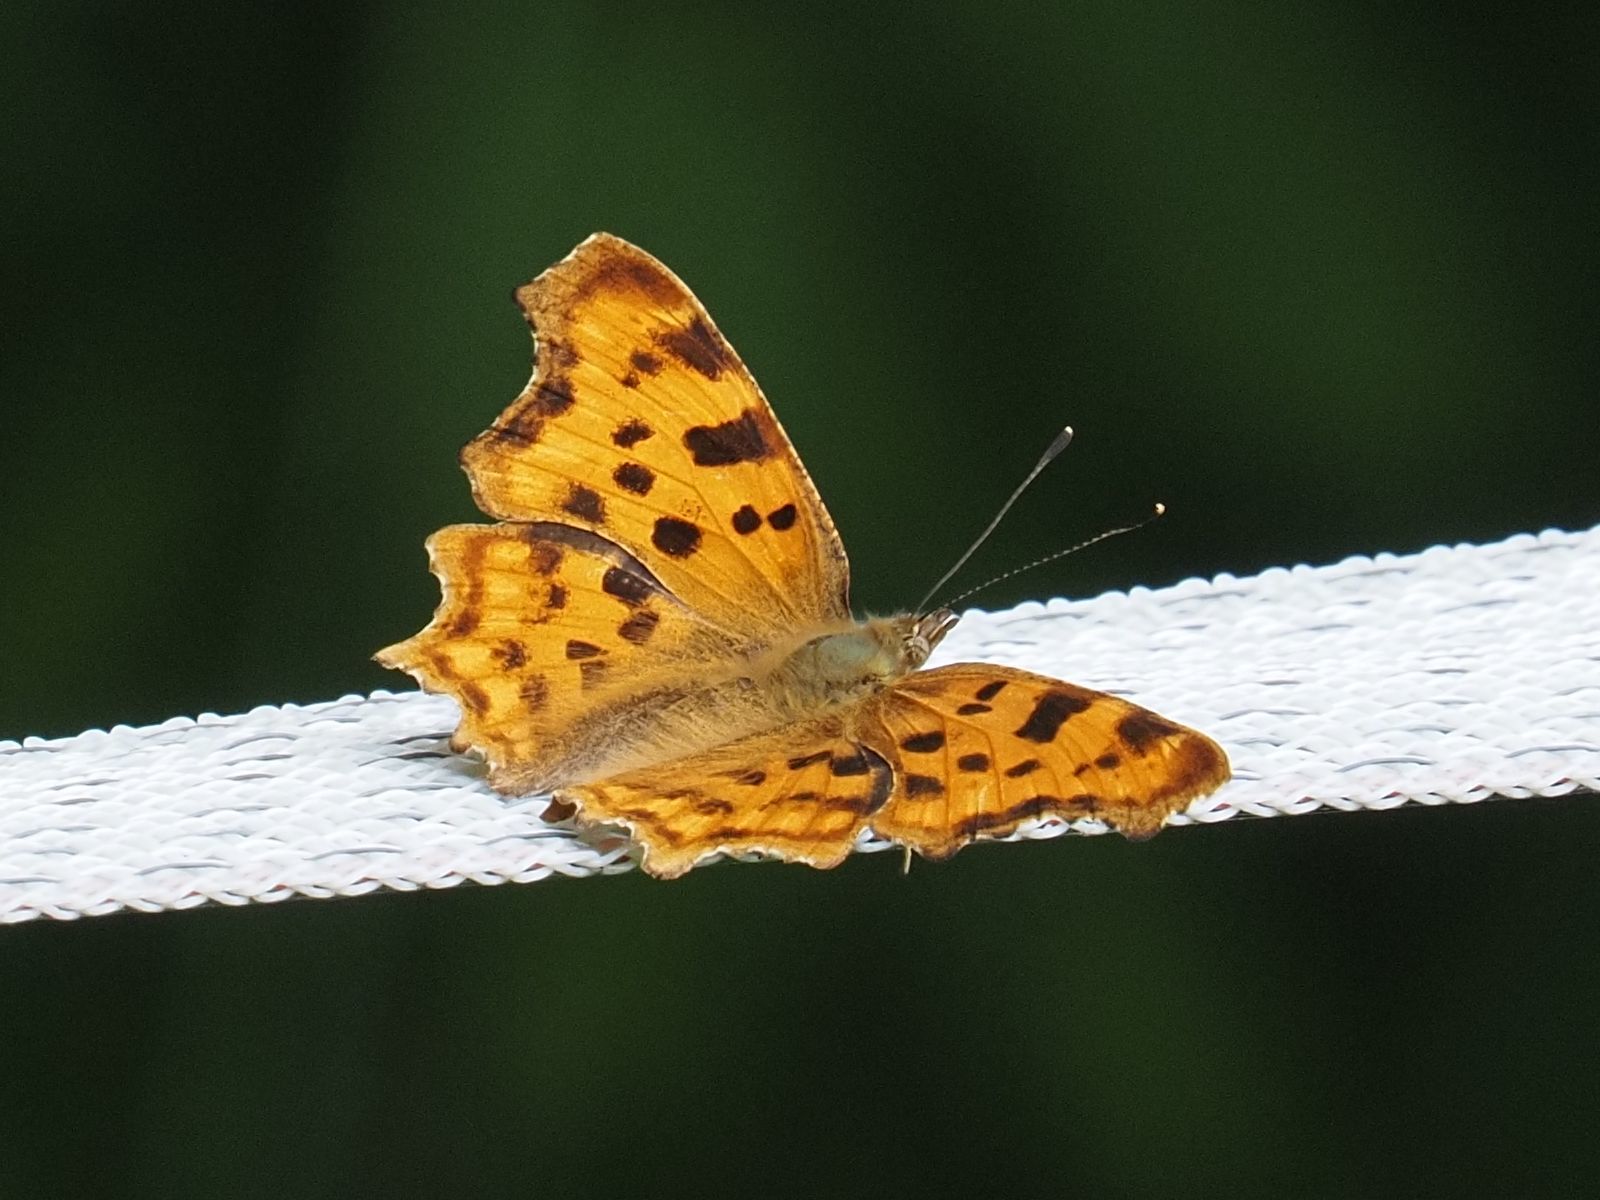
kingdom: Animalia
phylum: Arthropoda
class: Insecta
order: Lepidoptera
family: Nymphalidae
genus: Polygonia
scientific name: Polygonia c-album
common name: Comma
